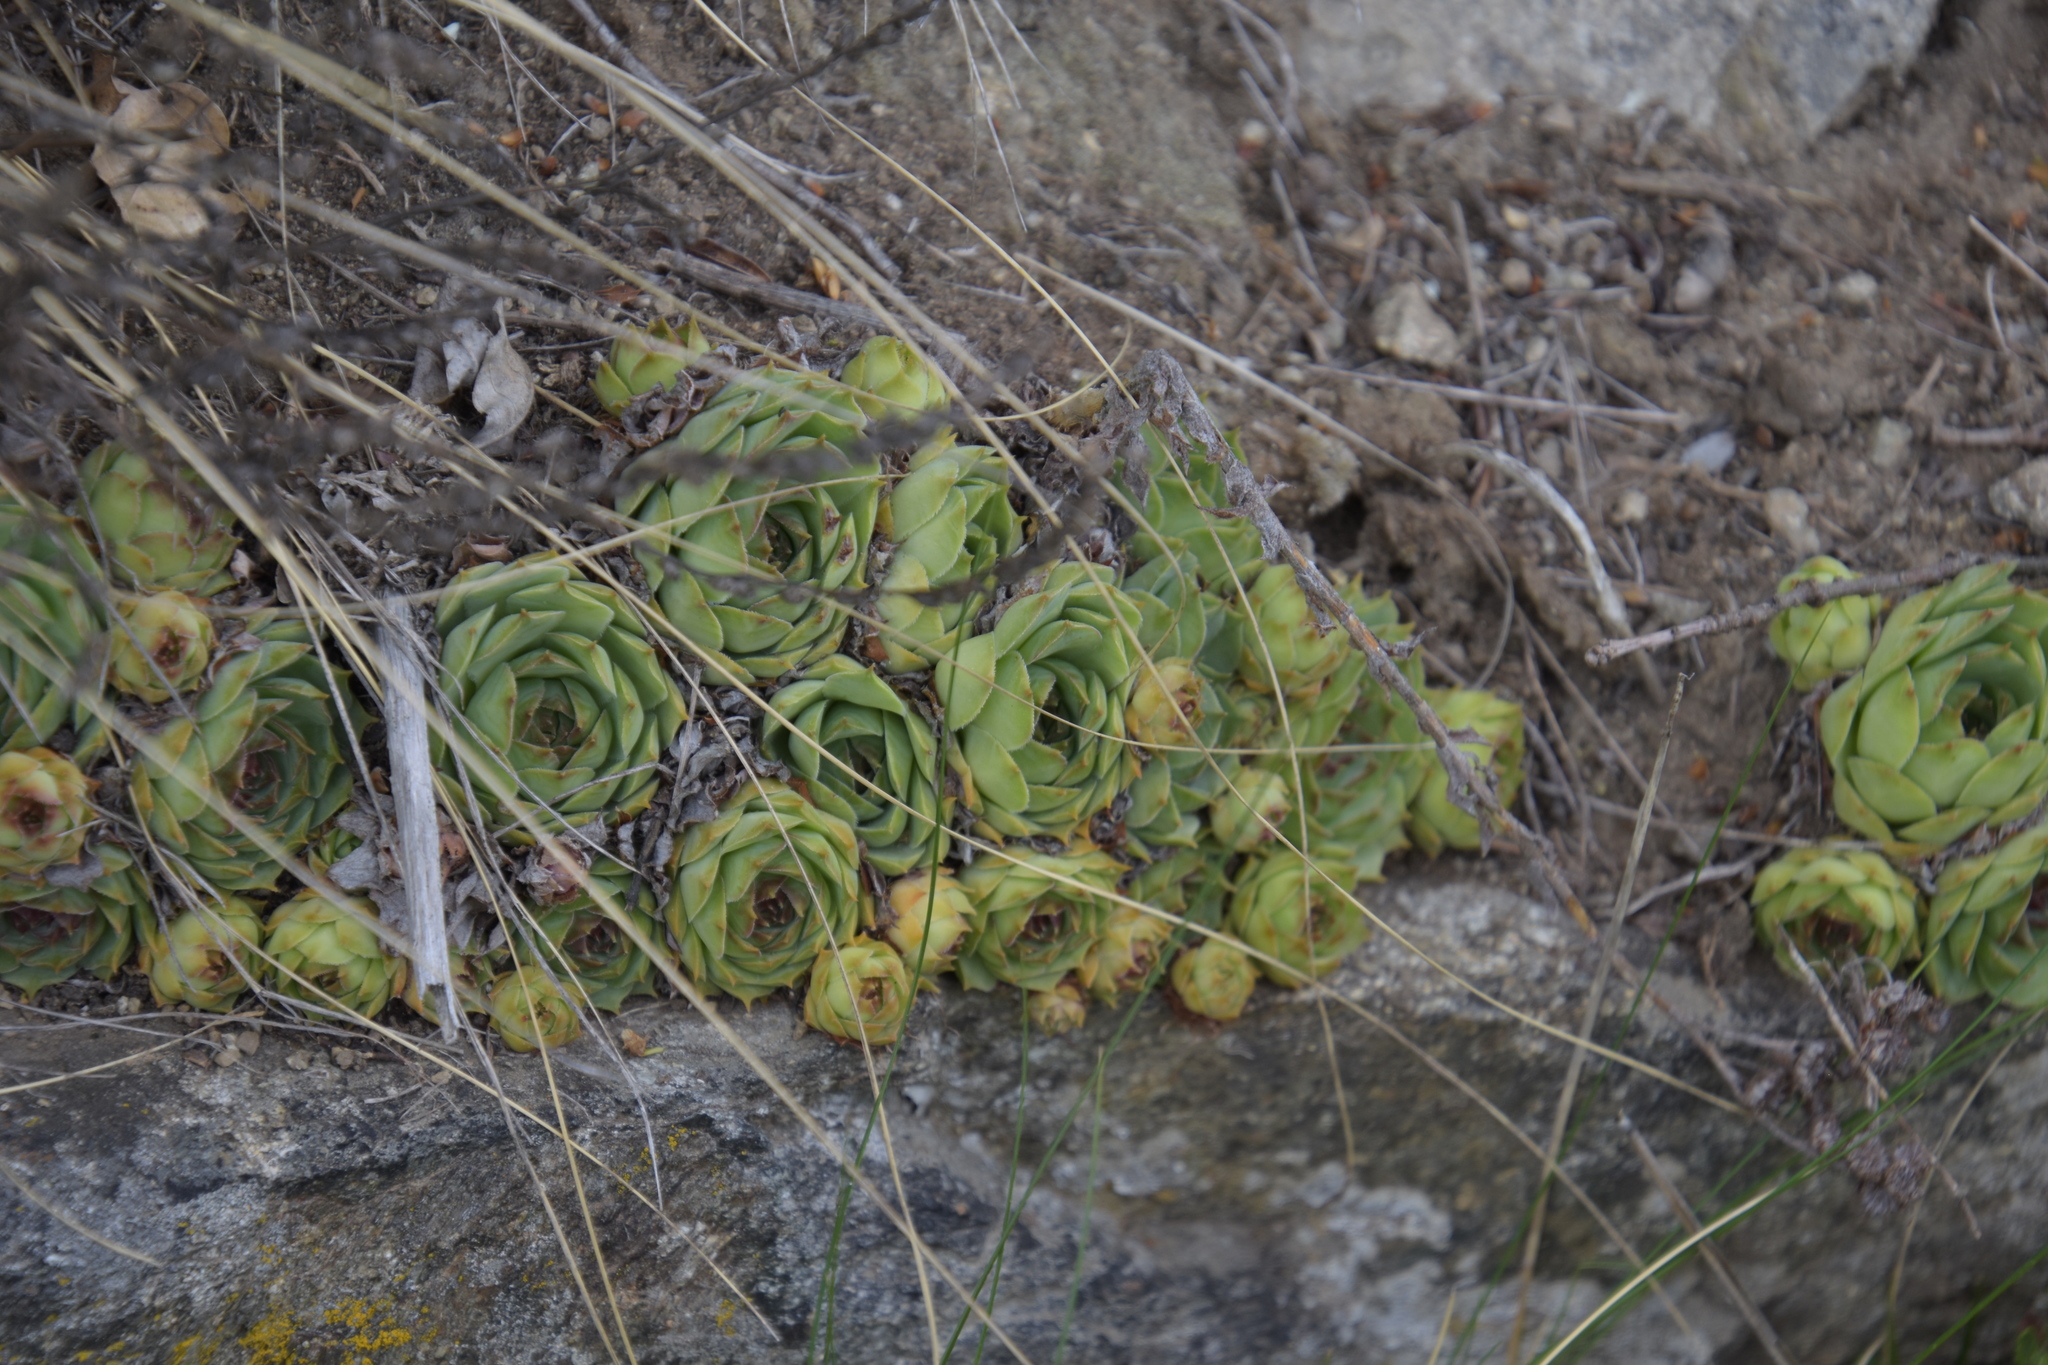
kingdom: Plantae
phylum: Tracheophyta
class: Magnoliopsida
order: Saxifragales
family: Crassulaceae
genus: Sempervivum
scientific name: Sempervivum tectorum
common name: House-leek
